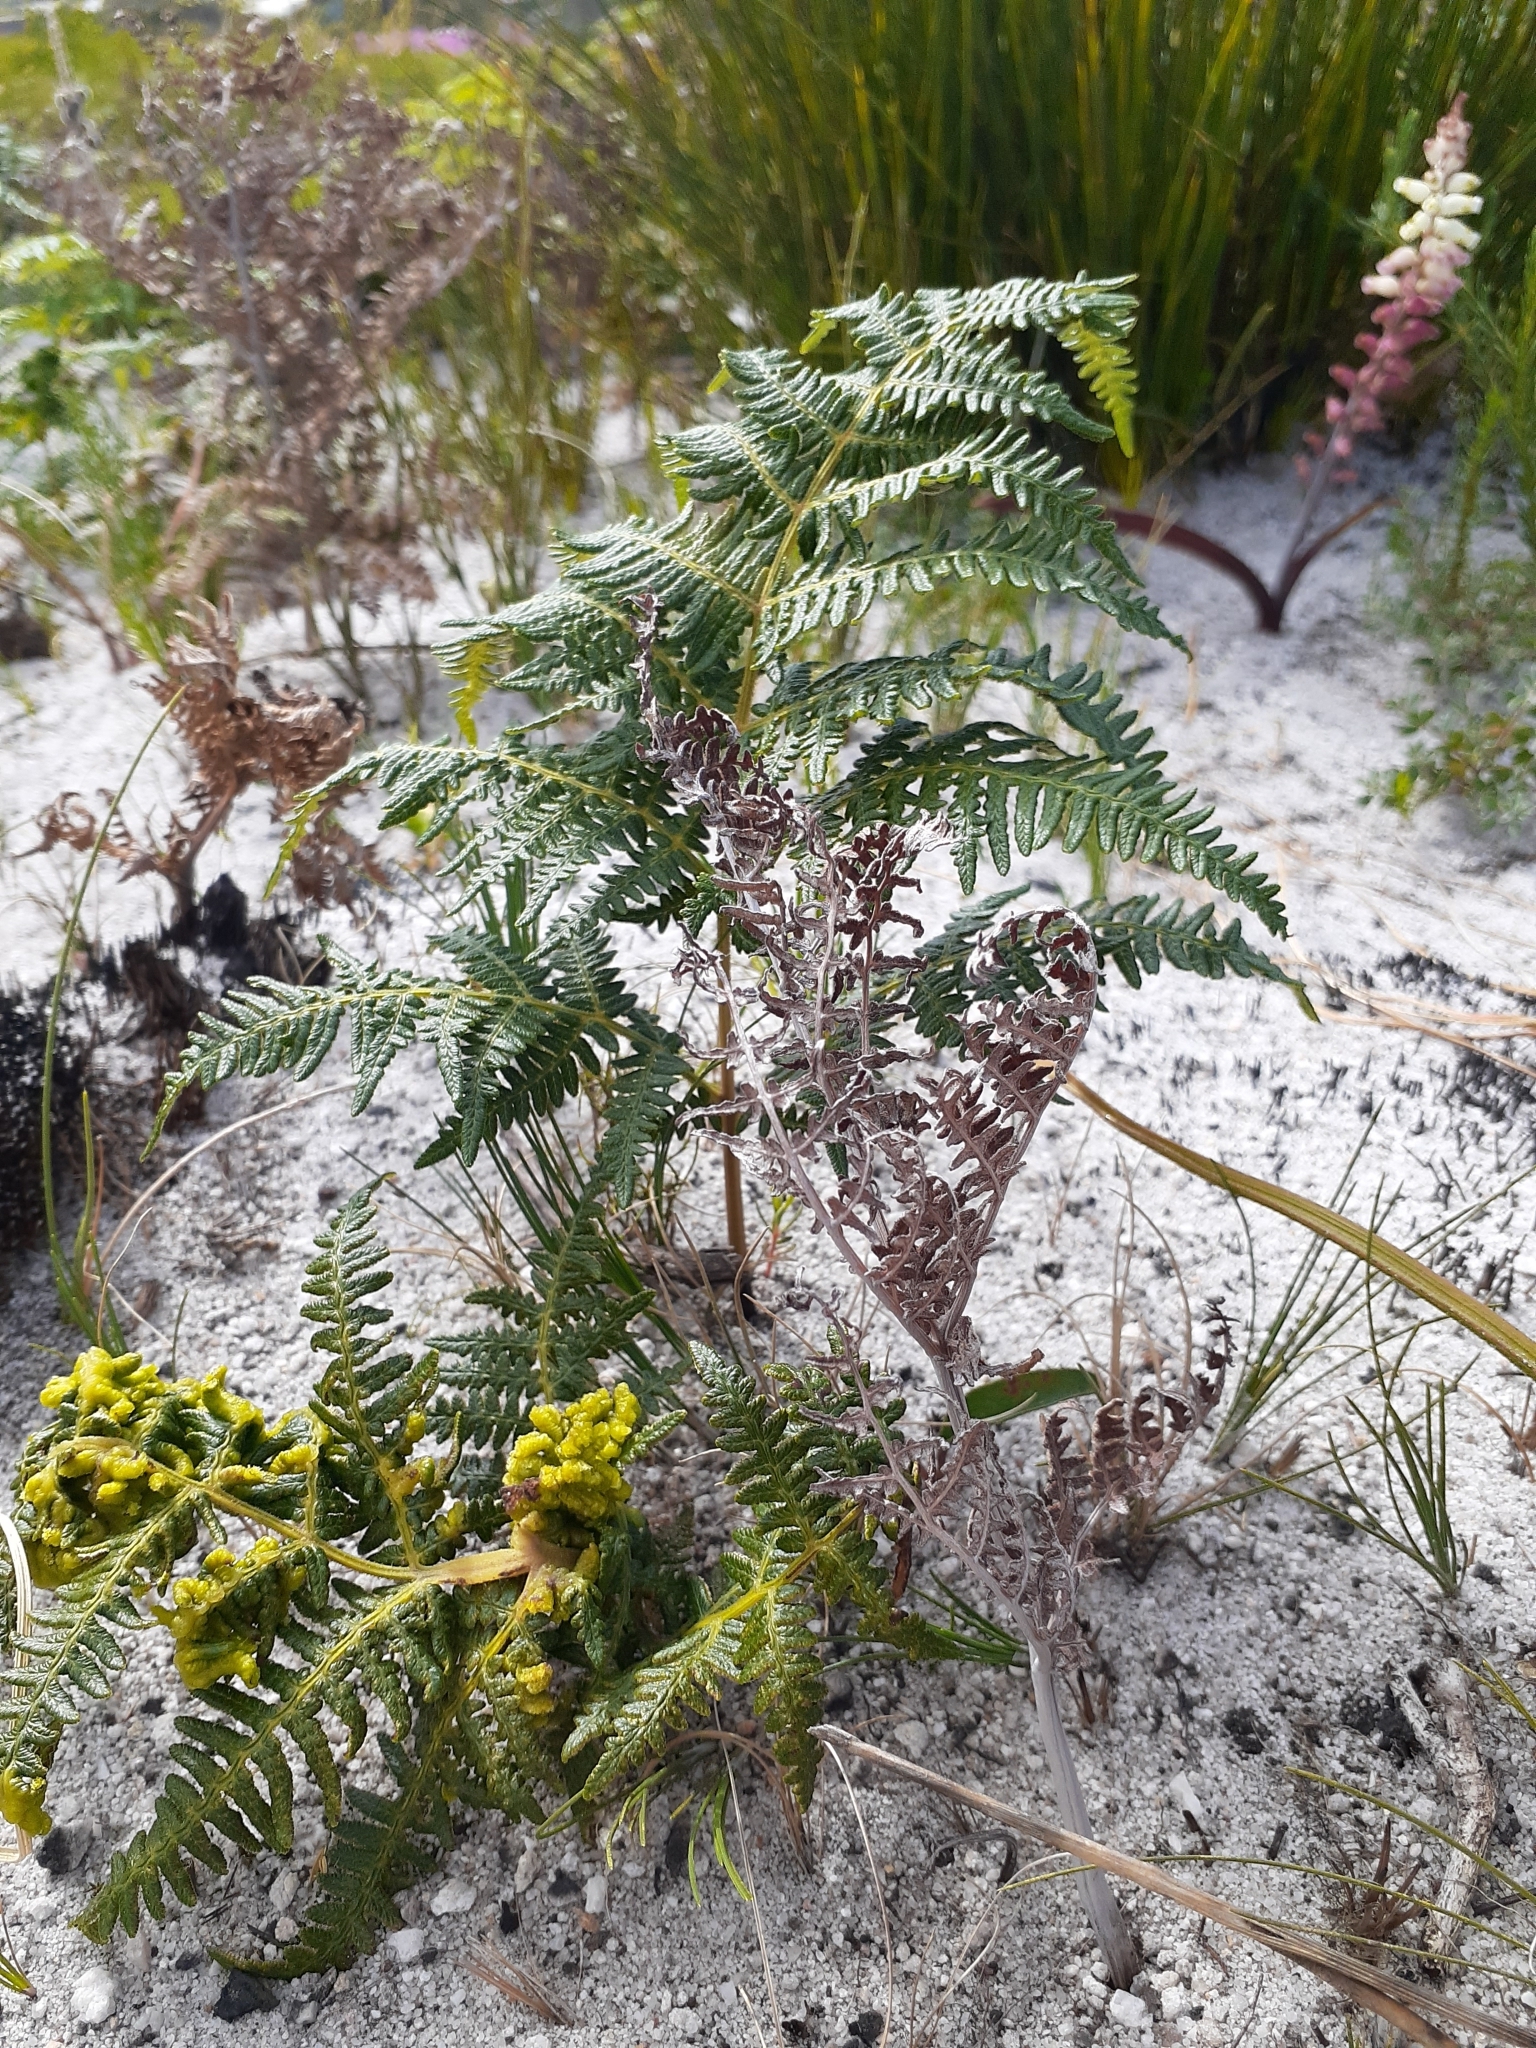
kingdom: Plantae
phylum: Tracheophyta
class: Polypodiopsida
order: Polypodiales
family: Dennstaedtiaceae
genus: Pteridium
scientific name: Pteridium aquilinum
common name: Bracken
